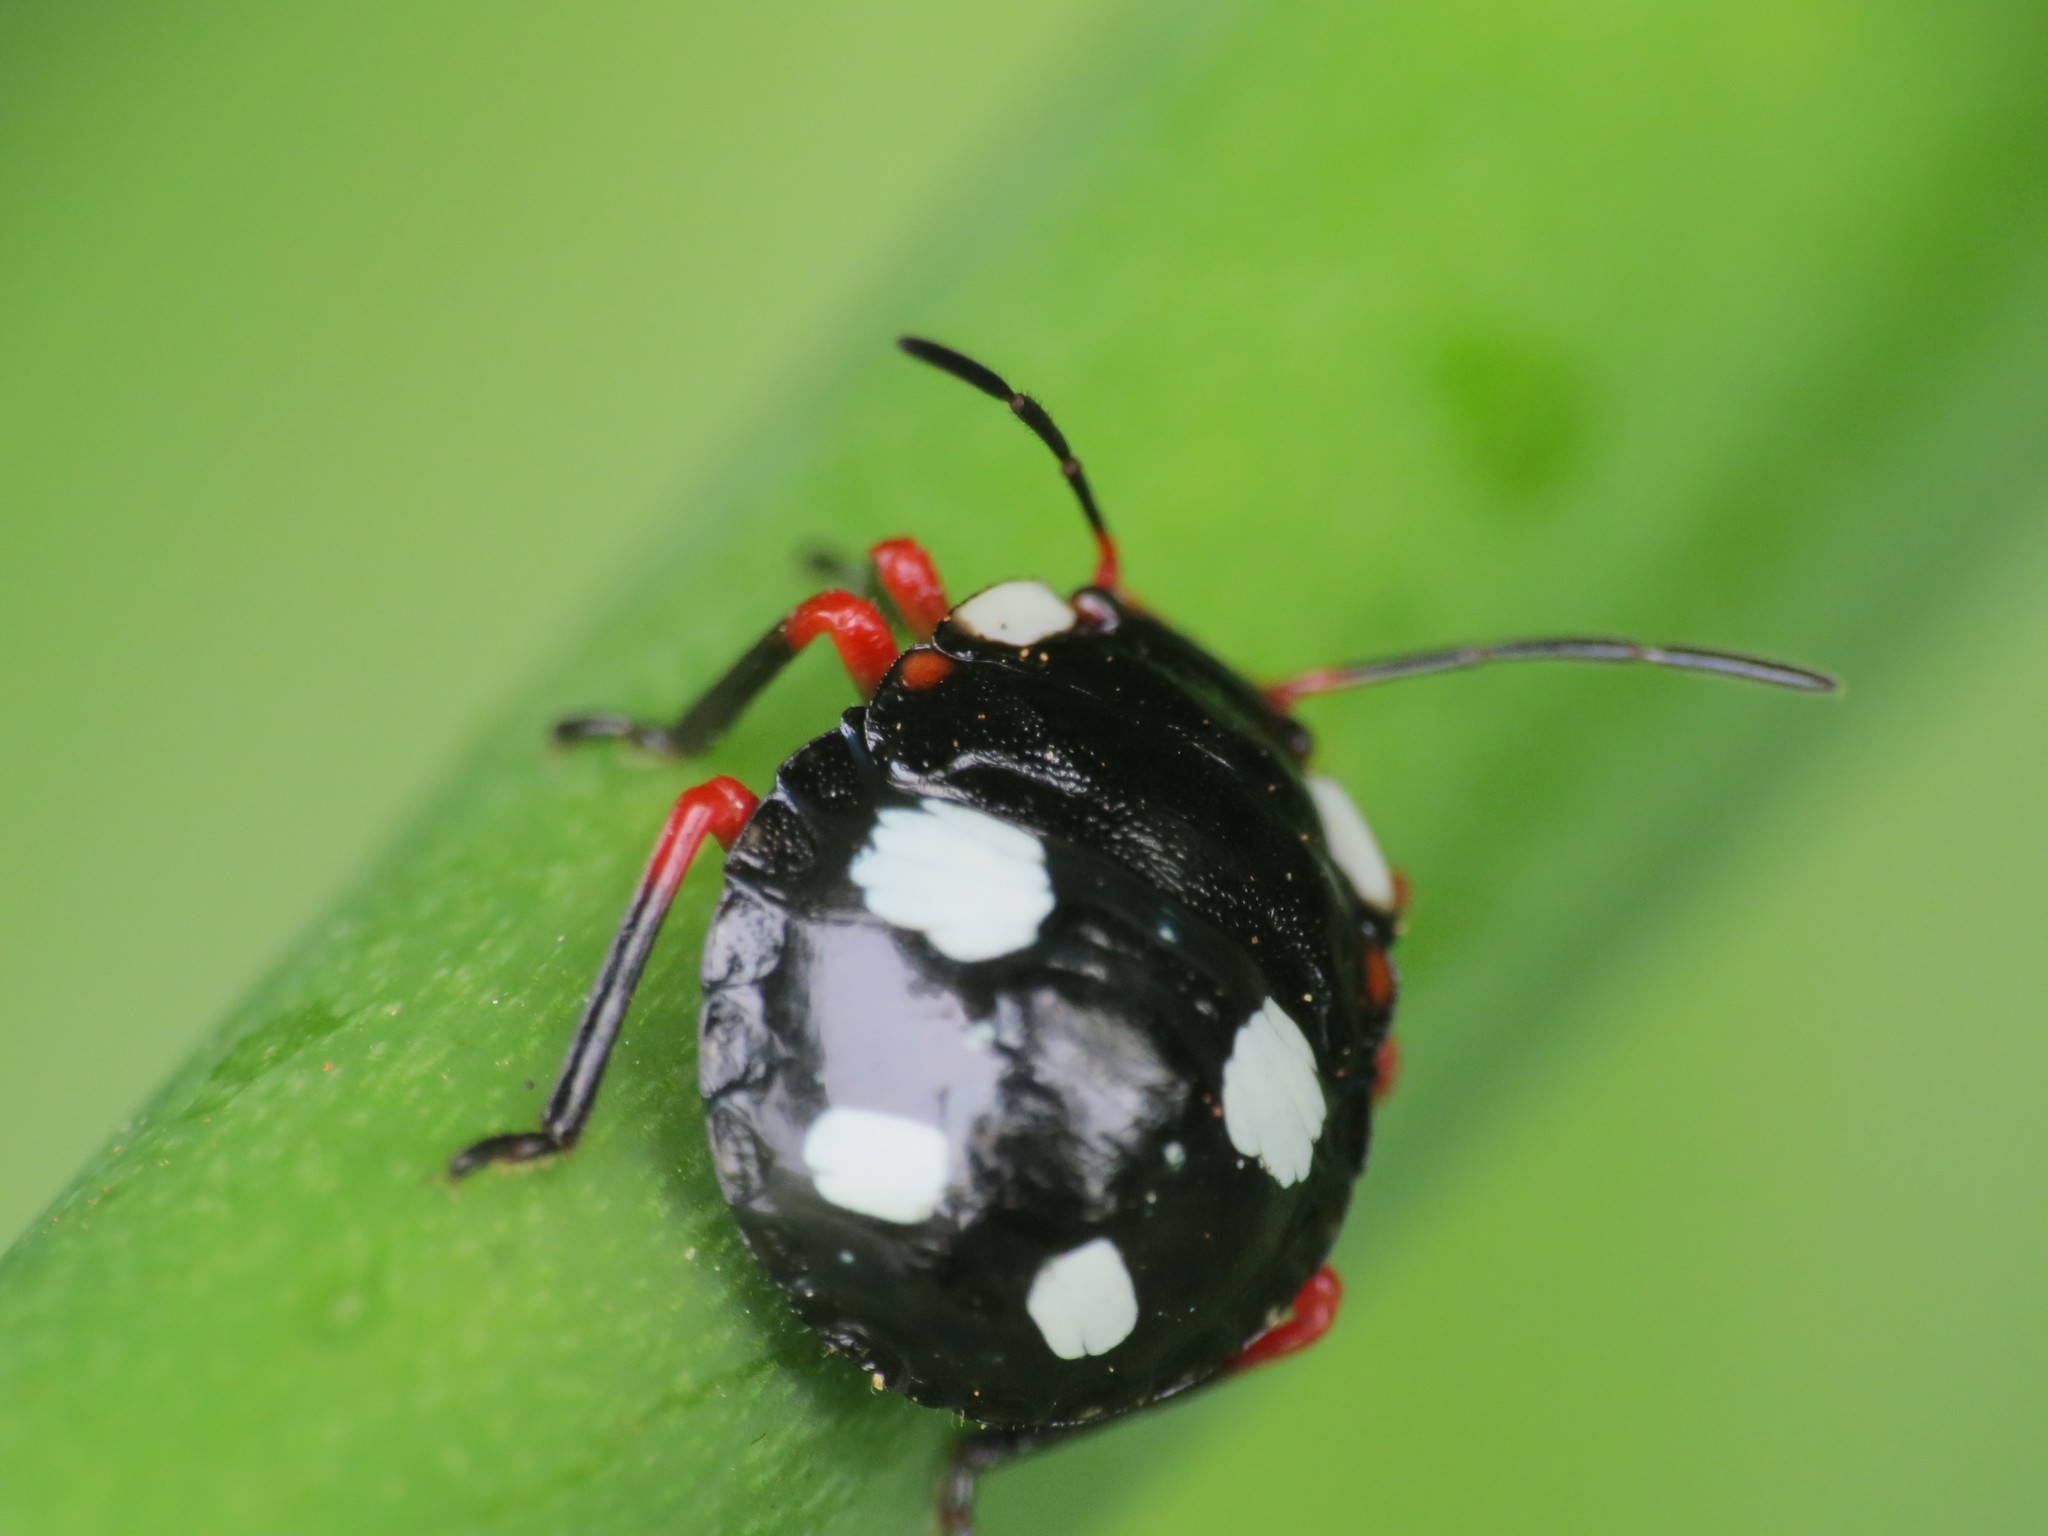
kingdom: Animalia
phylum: Arthropoda
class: Insecta
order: Hemiptera
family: Pentatomidae
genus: Chinavia
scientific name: Chinavia erythrocnemis
